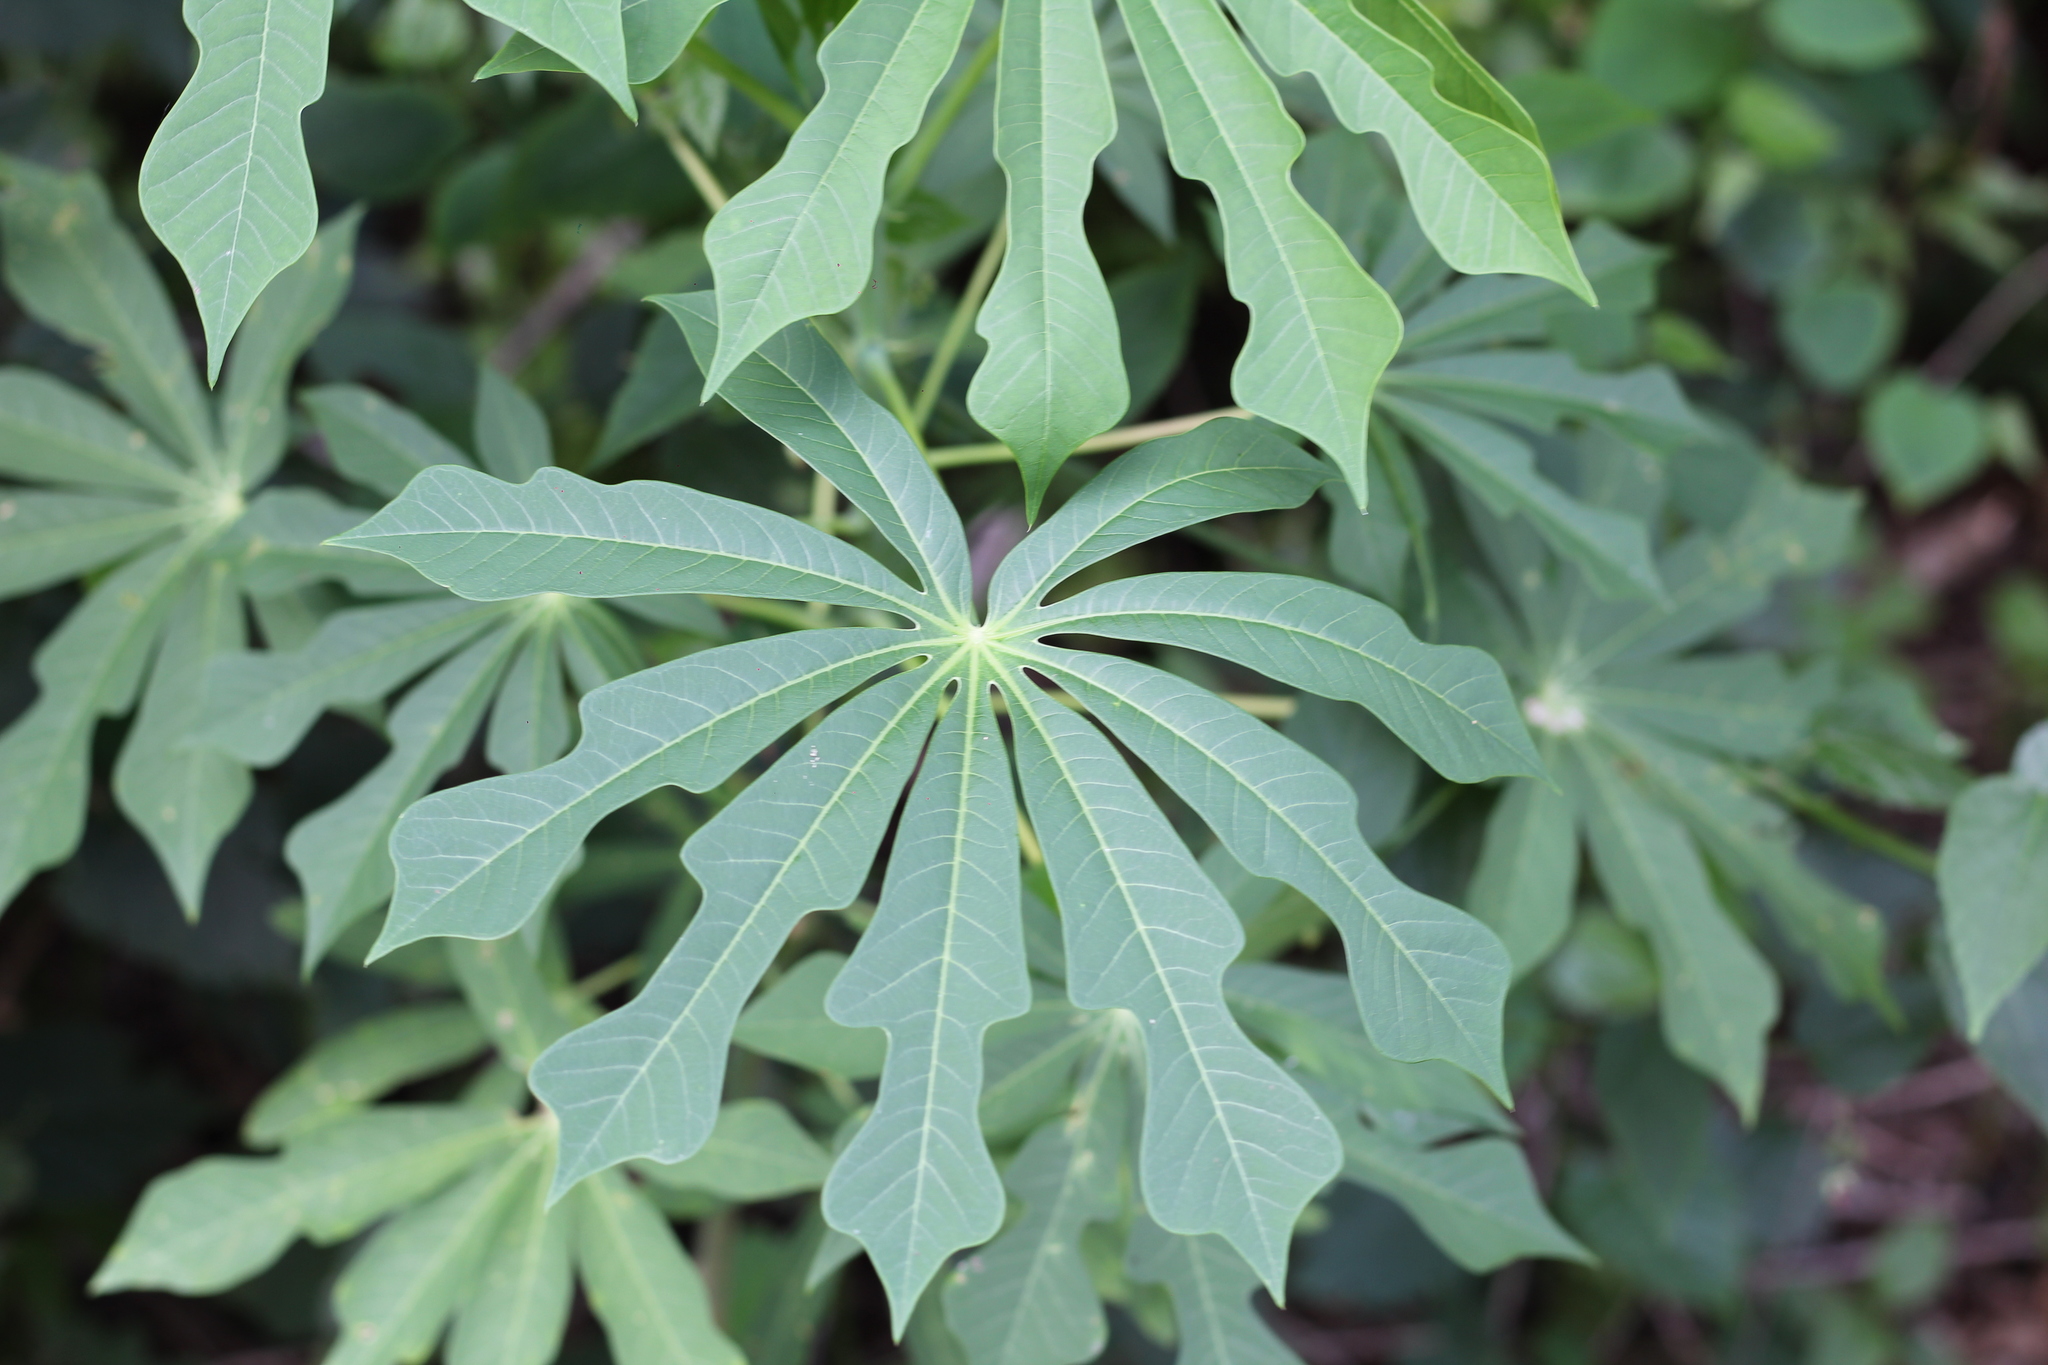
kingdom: Plantae
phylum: Tracheophyta
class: Magnoliopsida
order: Malpighiales
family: Euphorbiaceae
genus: Manihot
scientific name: Manihot grahamii
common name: Graham's manihot
